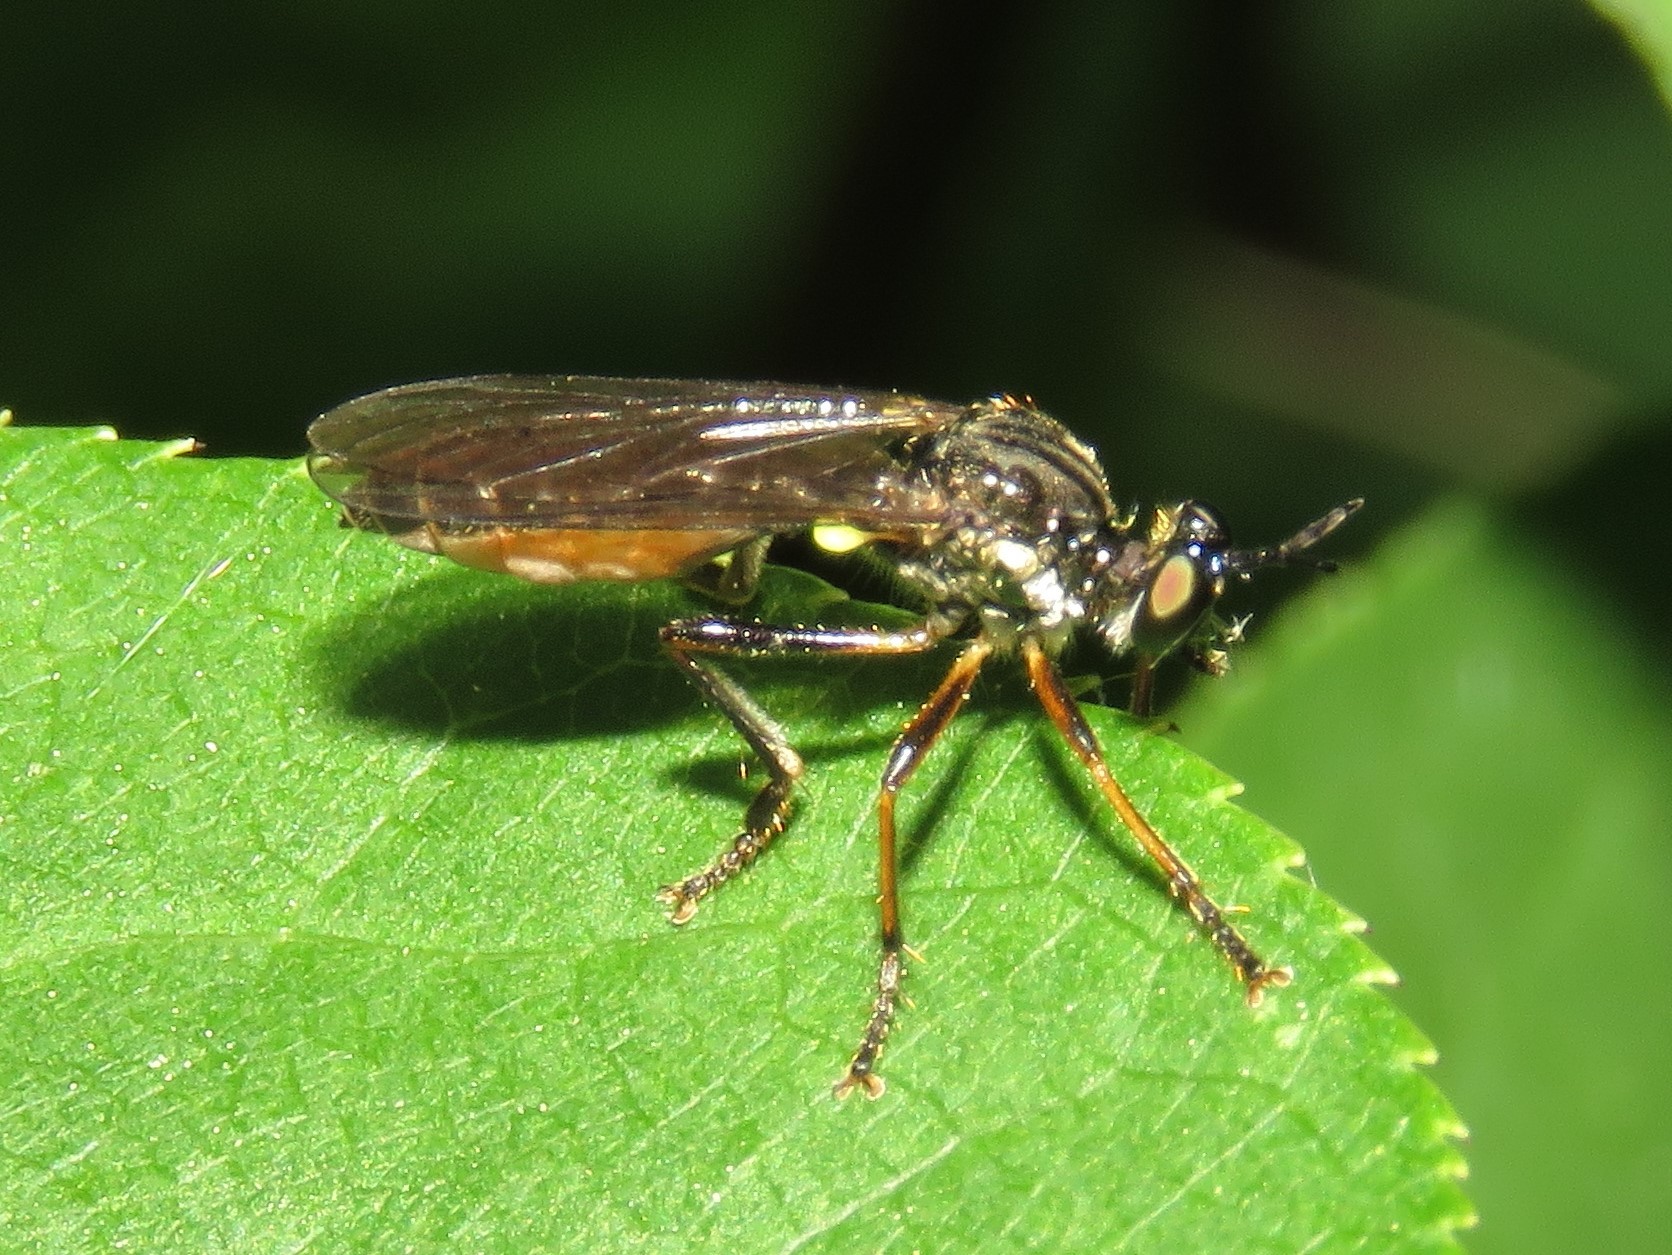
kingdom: Animalia
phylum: Arthropoda
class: Insecta
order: Diptera
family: Asilidae
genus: Dioctria
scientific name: Dioctria hyalipennis
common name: Stripe-legged robberfly
